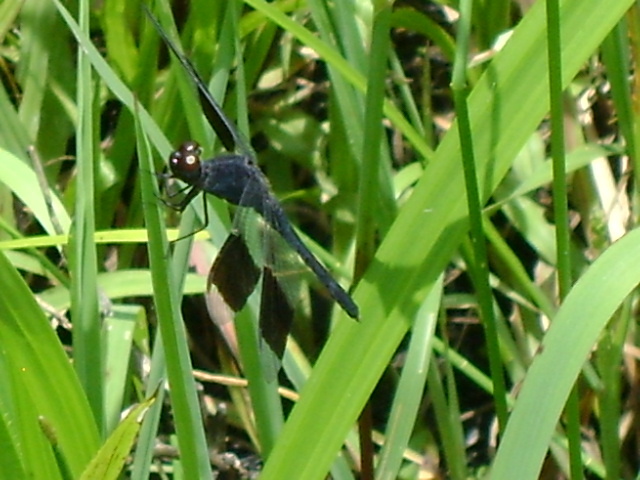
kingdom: Animalia
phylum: Arthropoda
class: Insecta
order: Odonata
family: Libellulidae
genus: Erythrodiplax
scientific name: Erythrodiplax umbrata
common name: Band-winged dragonlet
